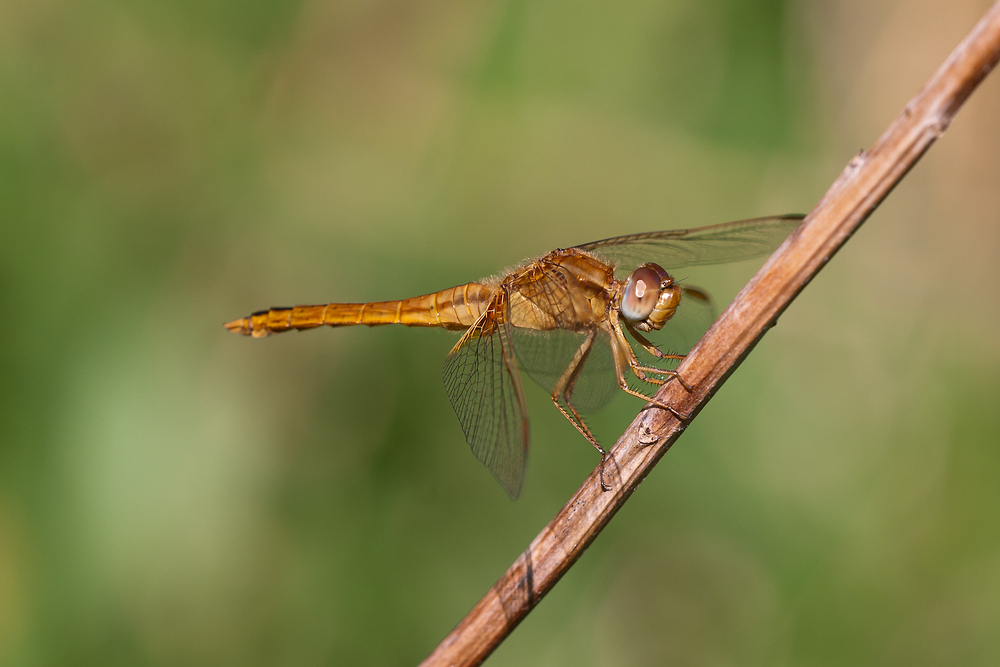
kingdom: Animalia
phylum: Arthropoda
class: Insecta
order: Odonata
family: Libellulidae
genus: Crocothemis
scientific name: Crocothemis erythraea
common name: Scarlet dragonfly
